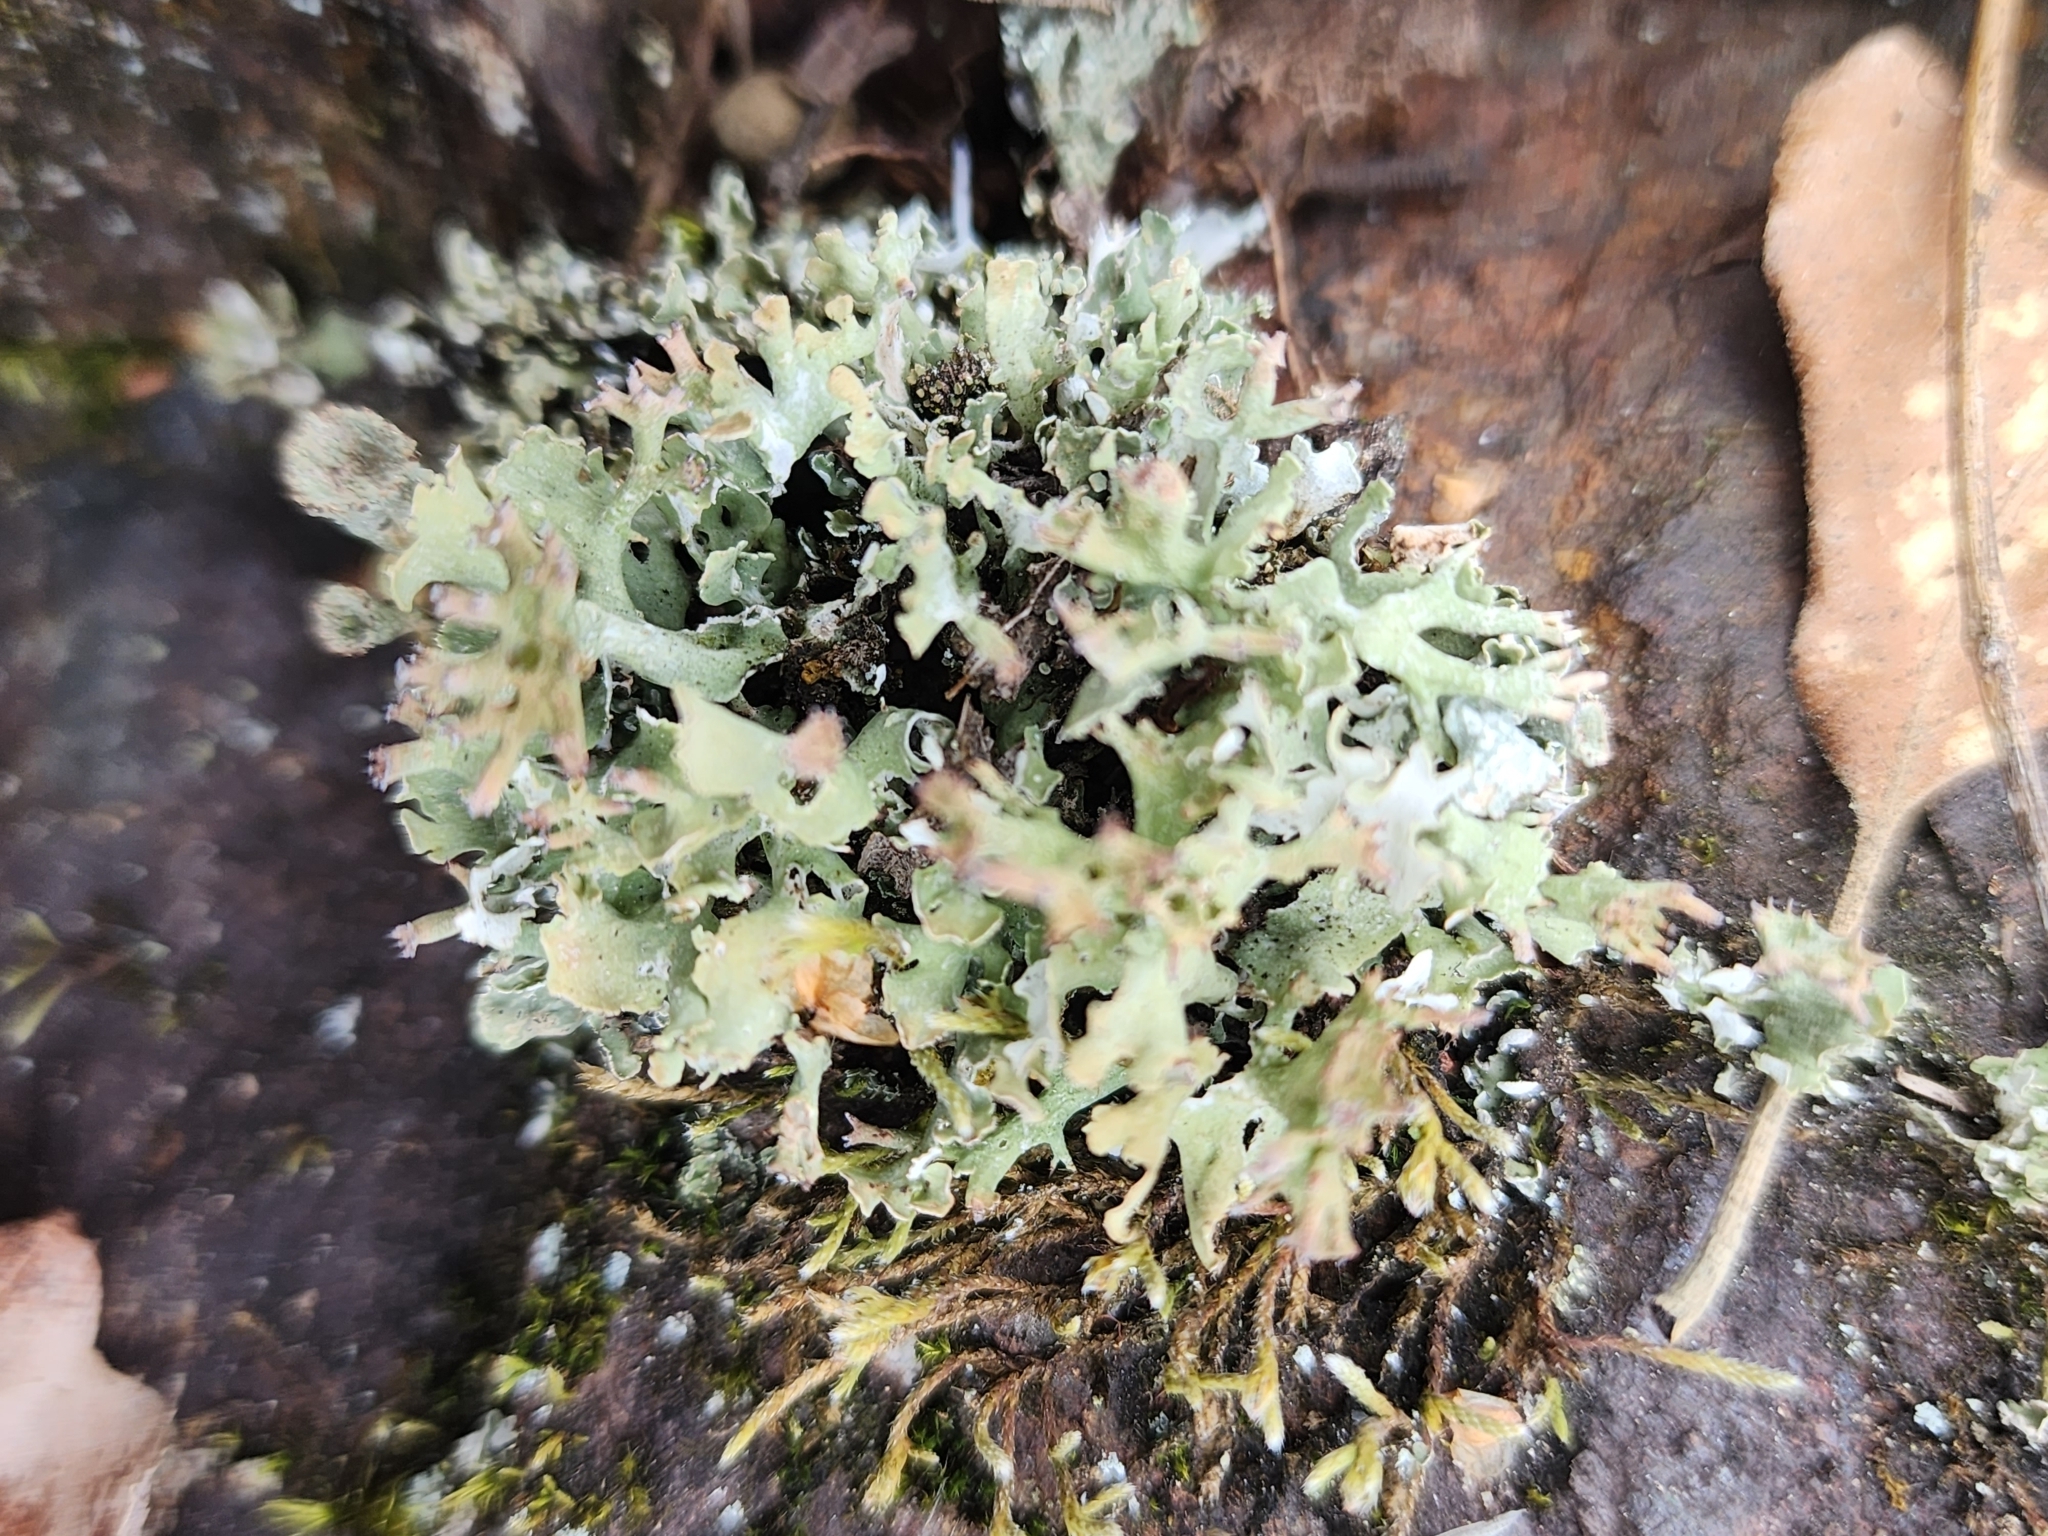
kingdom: Fungi
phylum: Ascomycota
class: Lecanoromycetes
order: Lecanorales
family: Cladoniaceae
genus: Cladonia
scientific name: Cladonia turgida
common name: Crazy scale lichen
